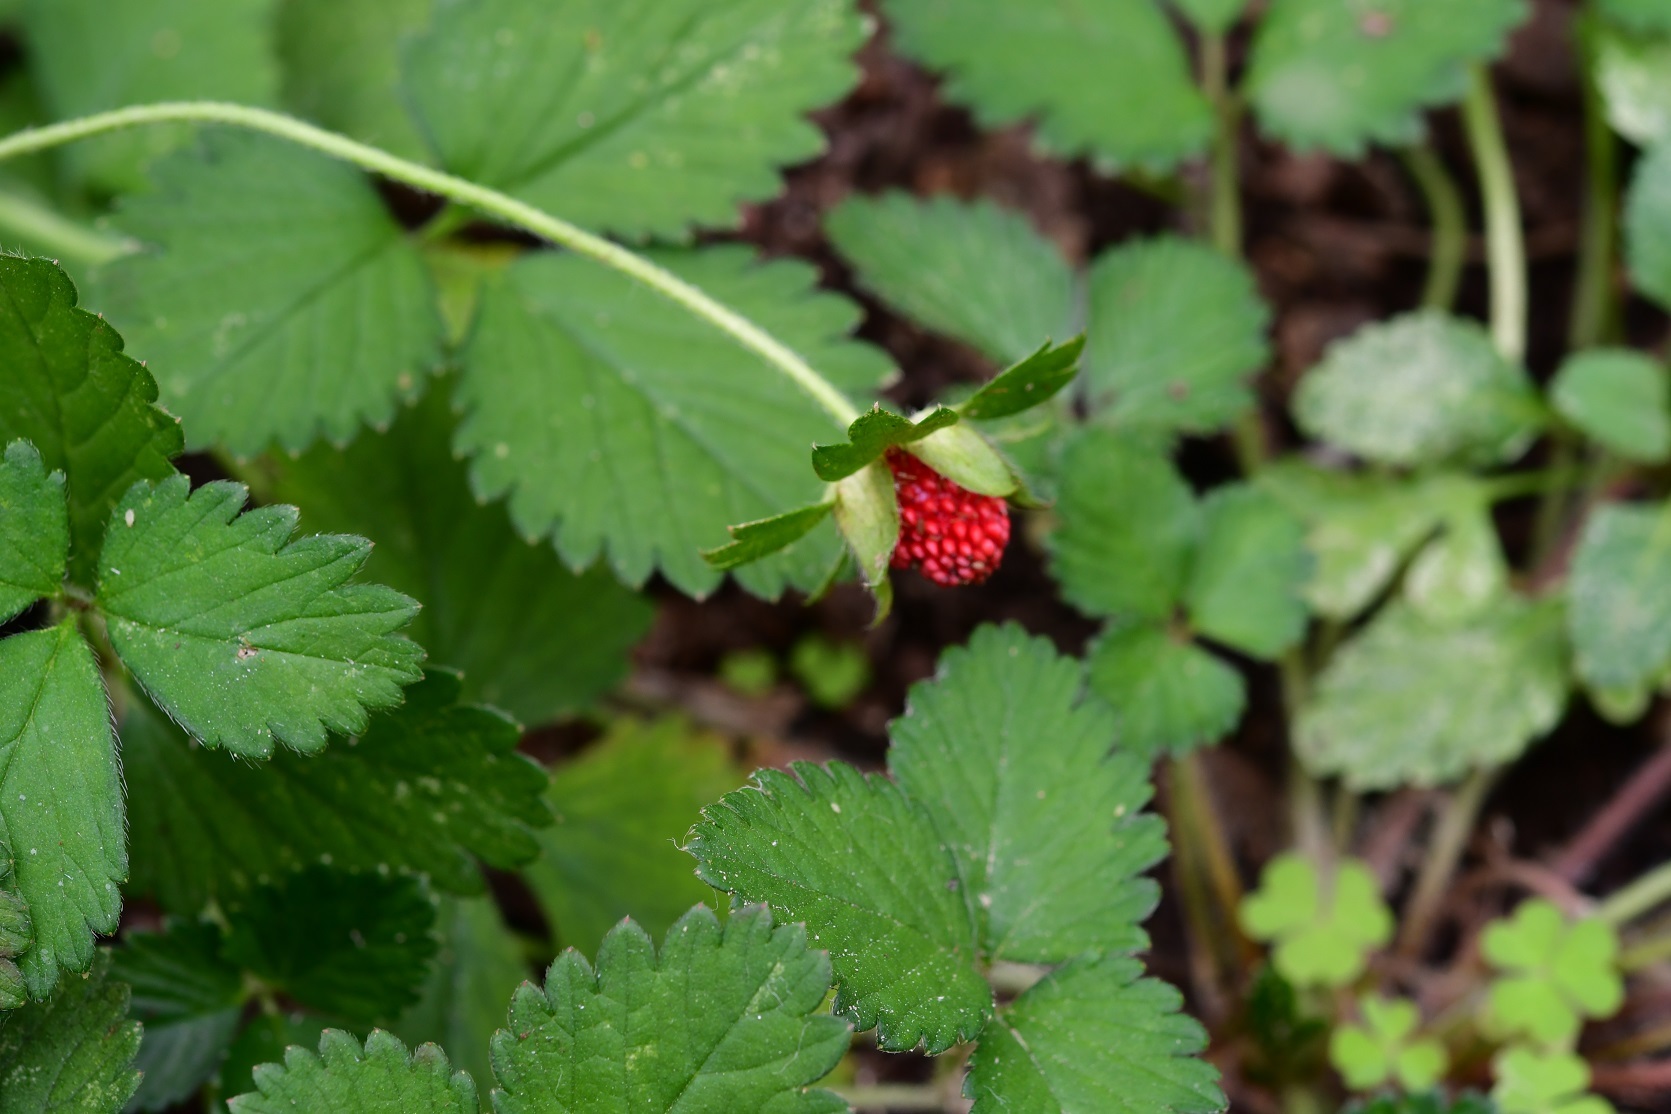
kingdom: Plantae
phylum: Tracheophyta
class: Magnoliopsida
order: Rosales
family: Rosaceae
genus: Potentilla
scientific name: Potentilla indica
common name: Yellow-flowered strawberry
